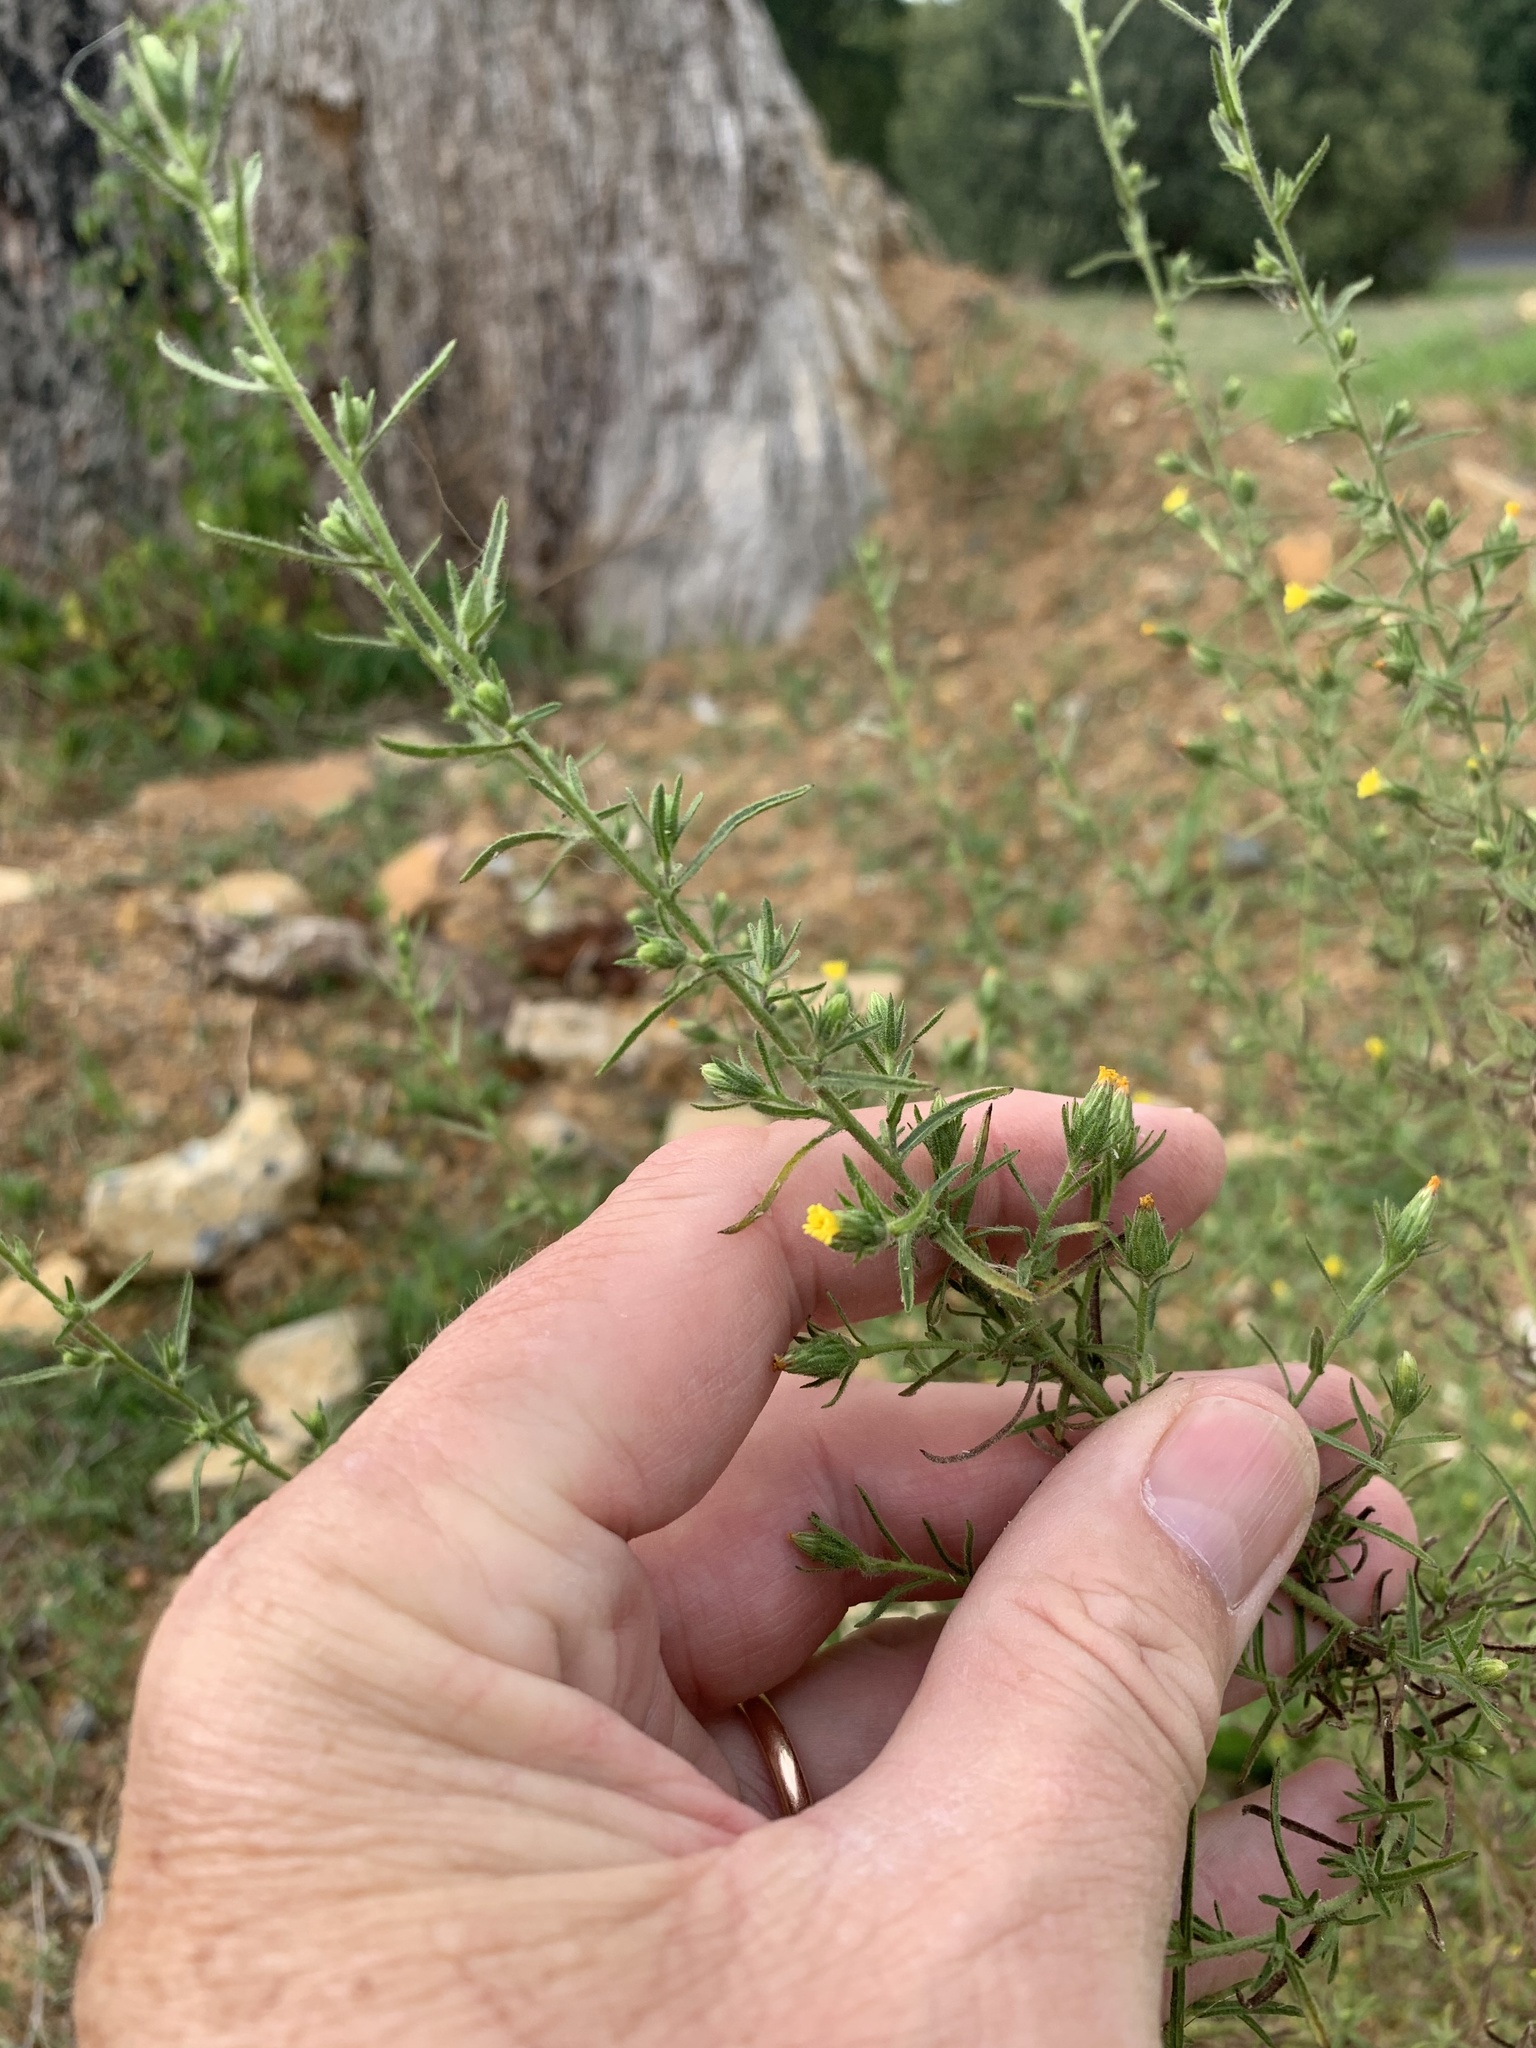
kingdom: Plantae
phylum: Tracheophyta
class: Magnoliopsida
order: Asterales
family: Asteraceae
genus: Dittrichia
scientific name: Dittrichia graveolens
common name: Stinking fleabane
